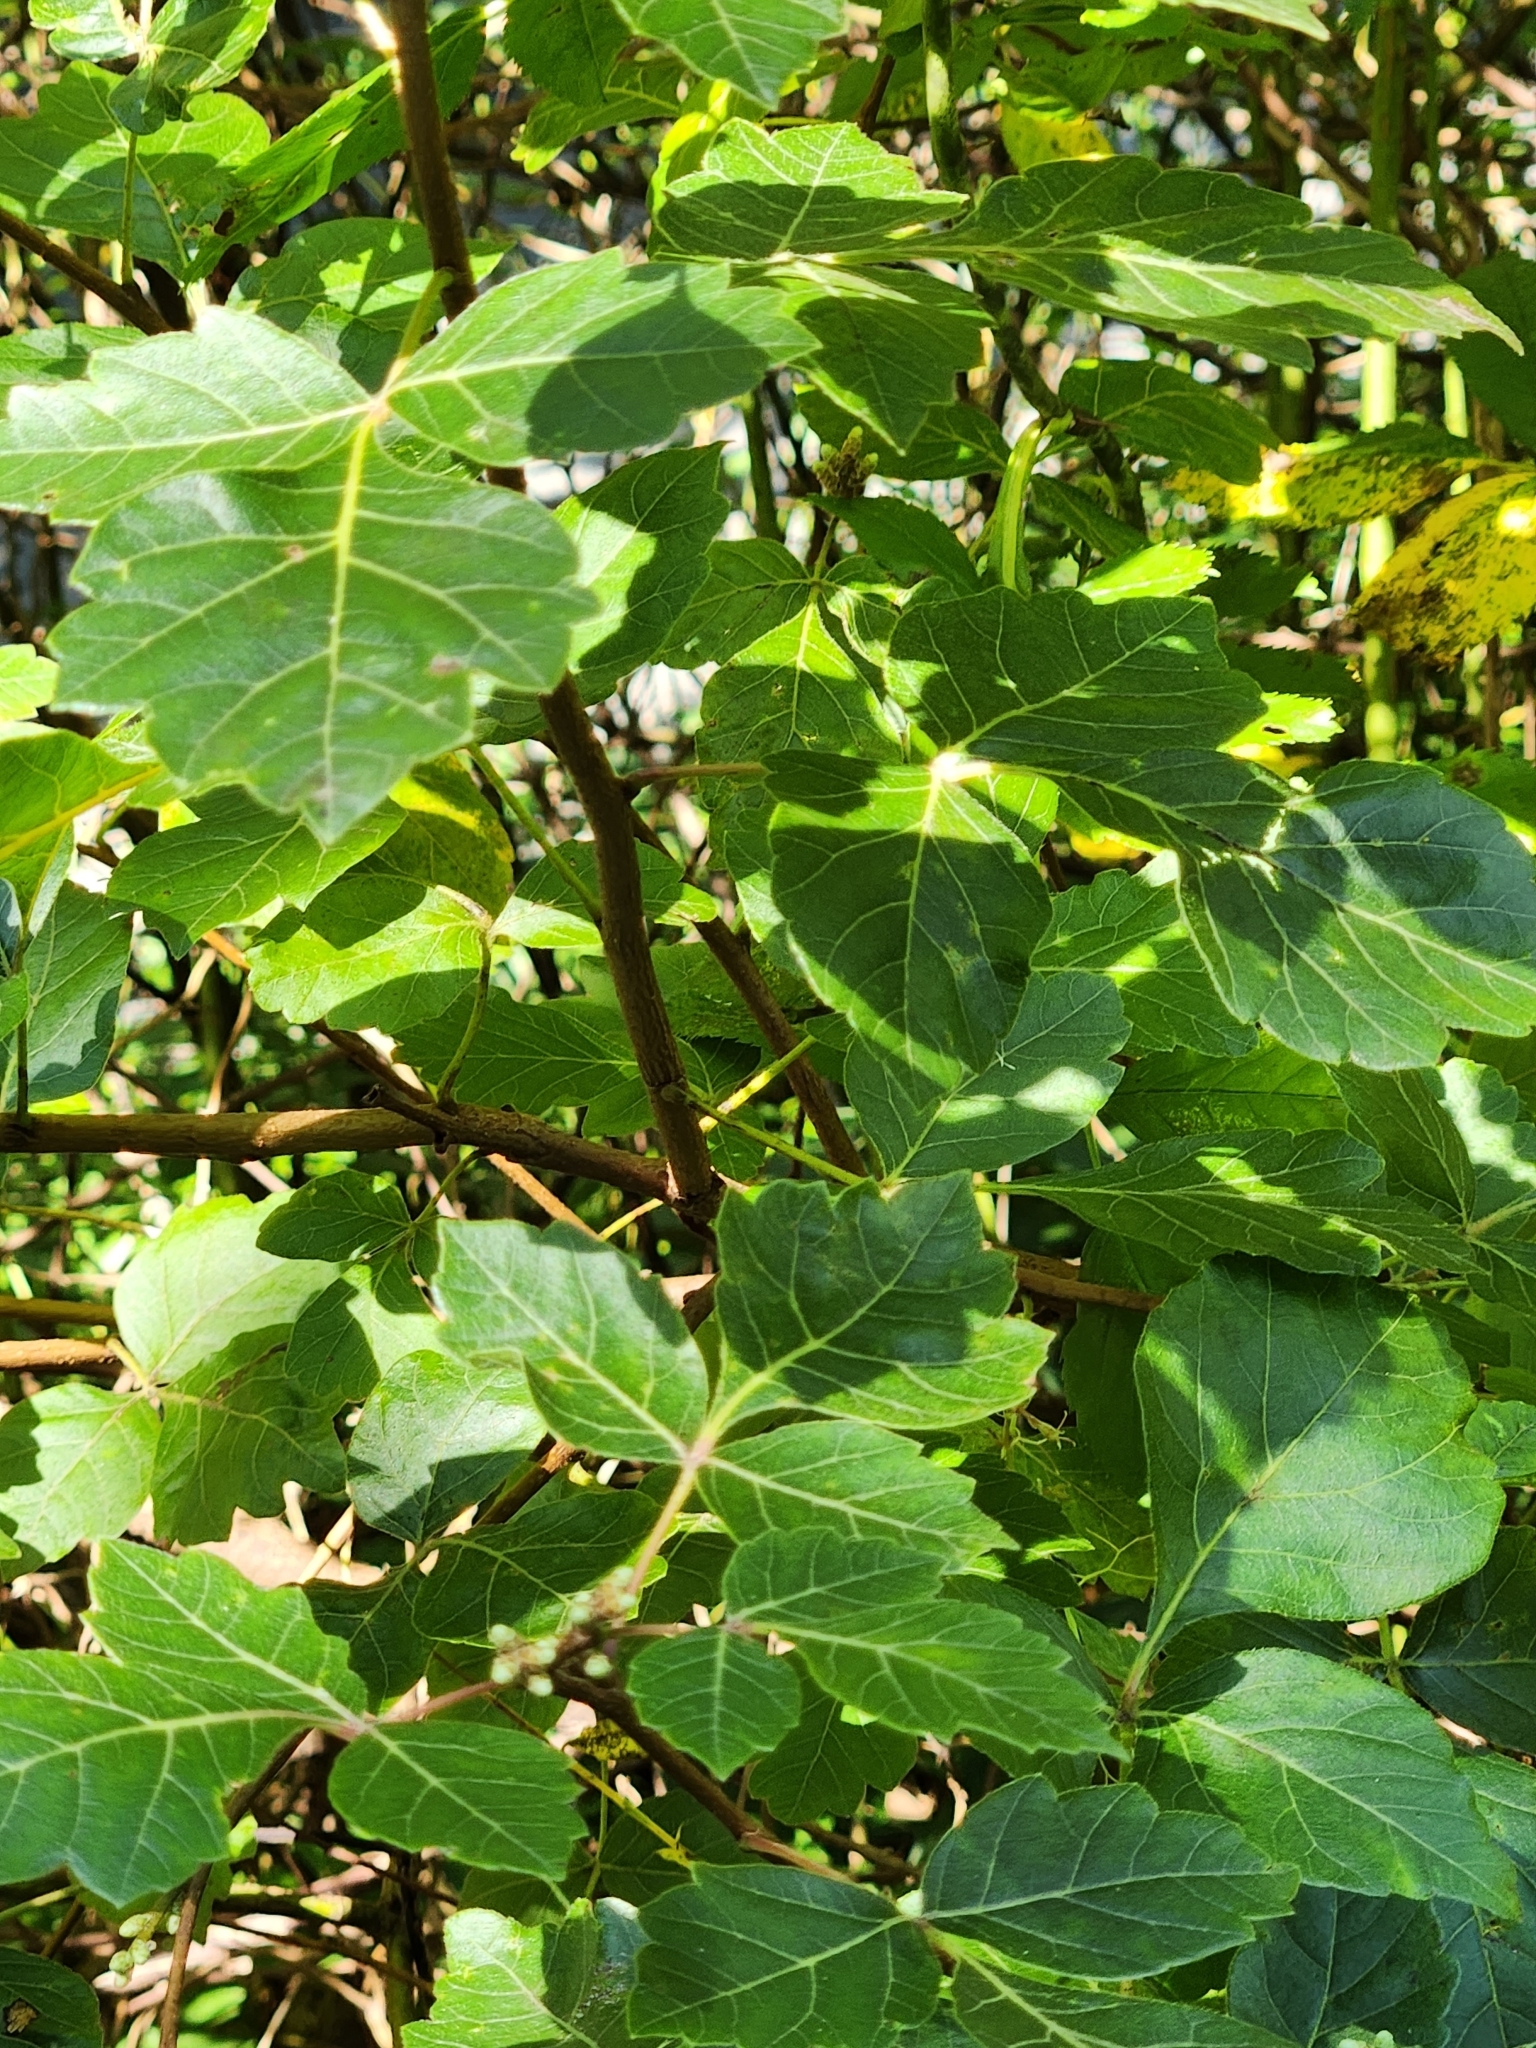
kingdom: Plantae
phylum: Tracheophyta
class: Magnoliopsida
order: Sapindales
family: Anacardiaceae
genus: Rhus
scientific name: Rhus aromatica
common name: Aromatic sumac
